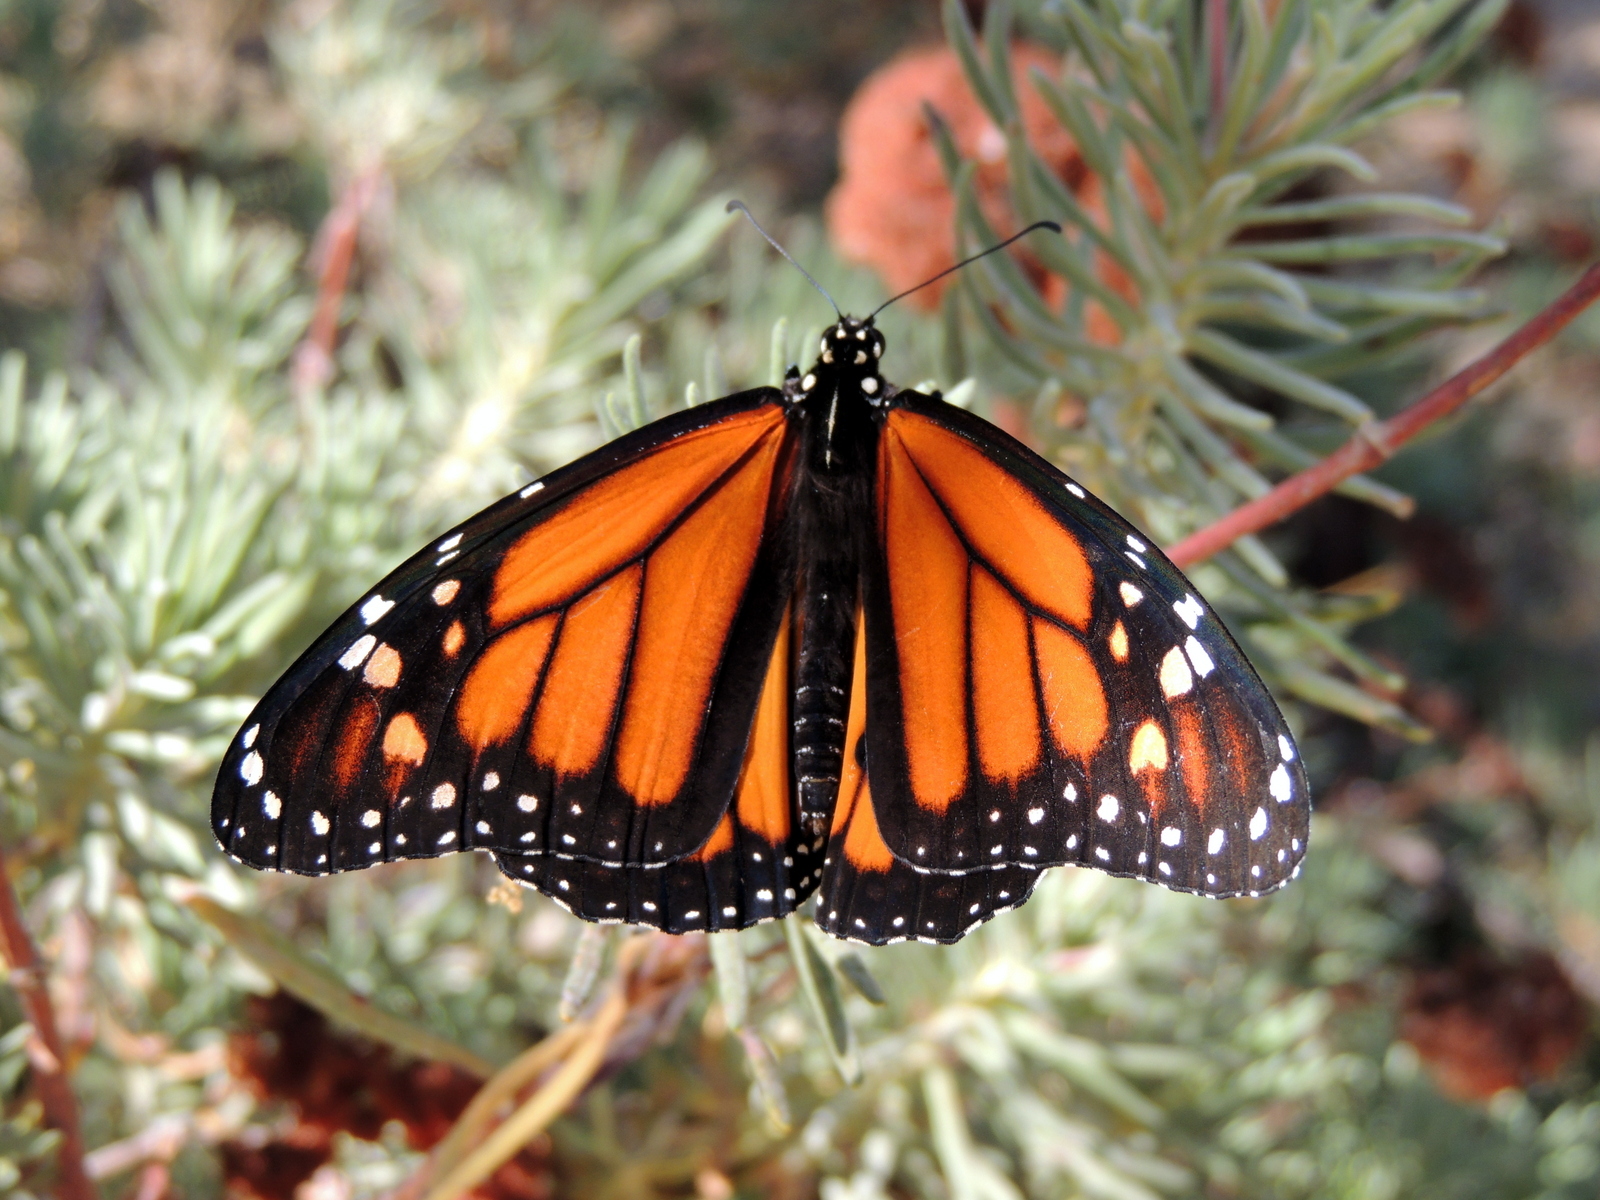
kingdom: Animalia
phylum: Arthropoda
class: Insecta
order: Lepidoptera
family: Nymphalidae
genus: Danaus
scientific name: Danaus plexippus
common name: Monarch
